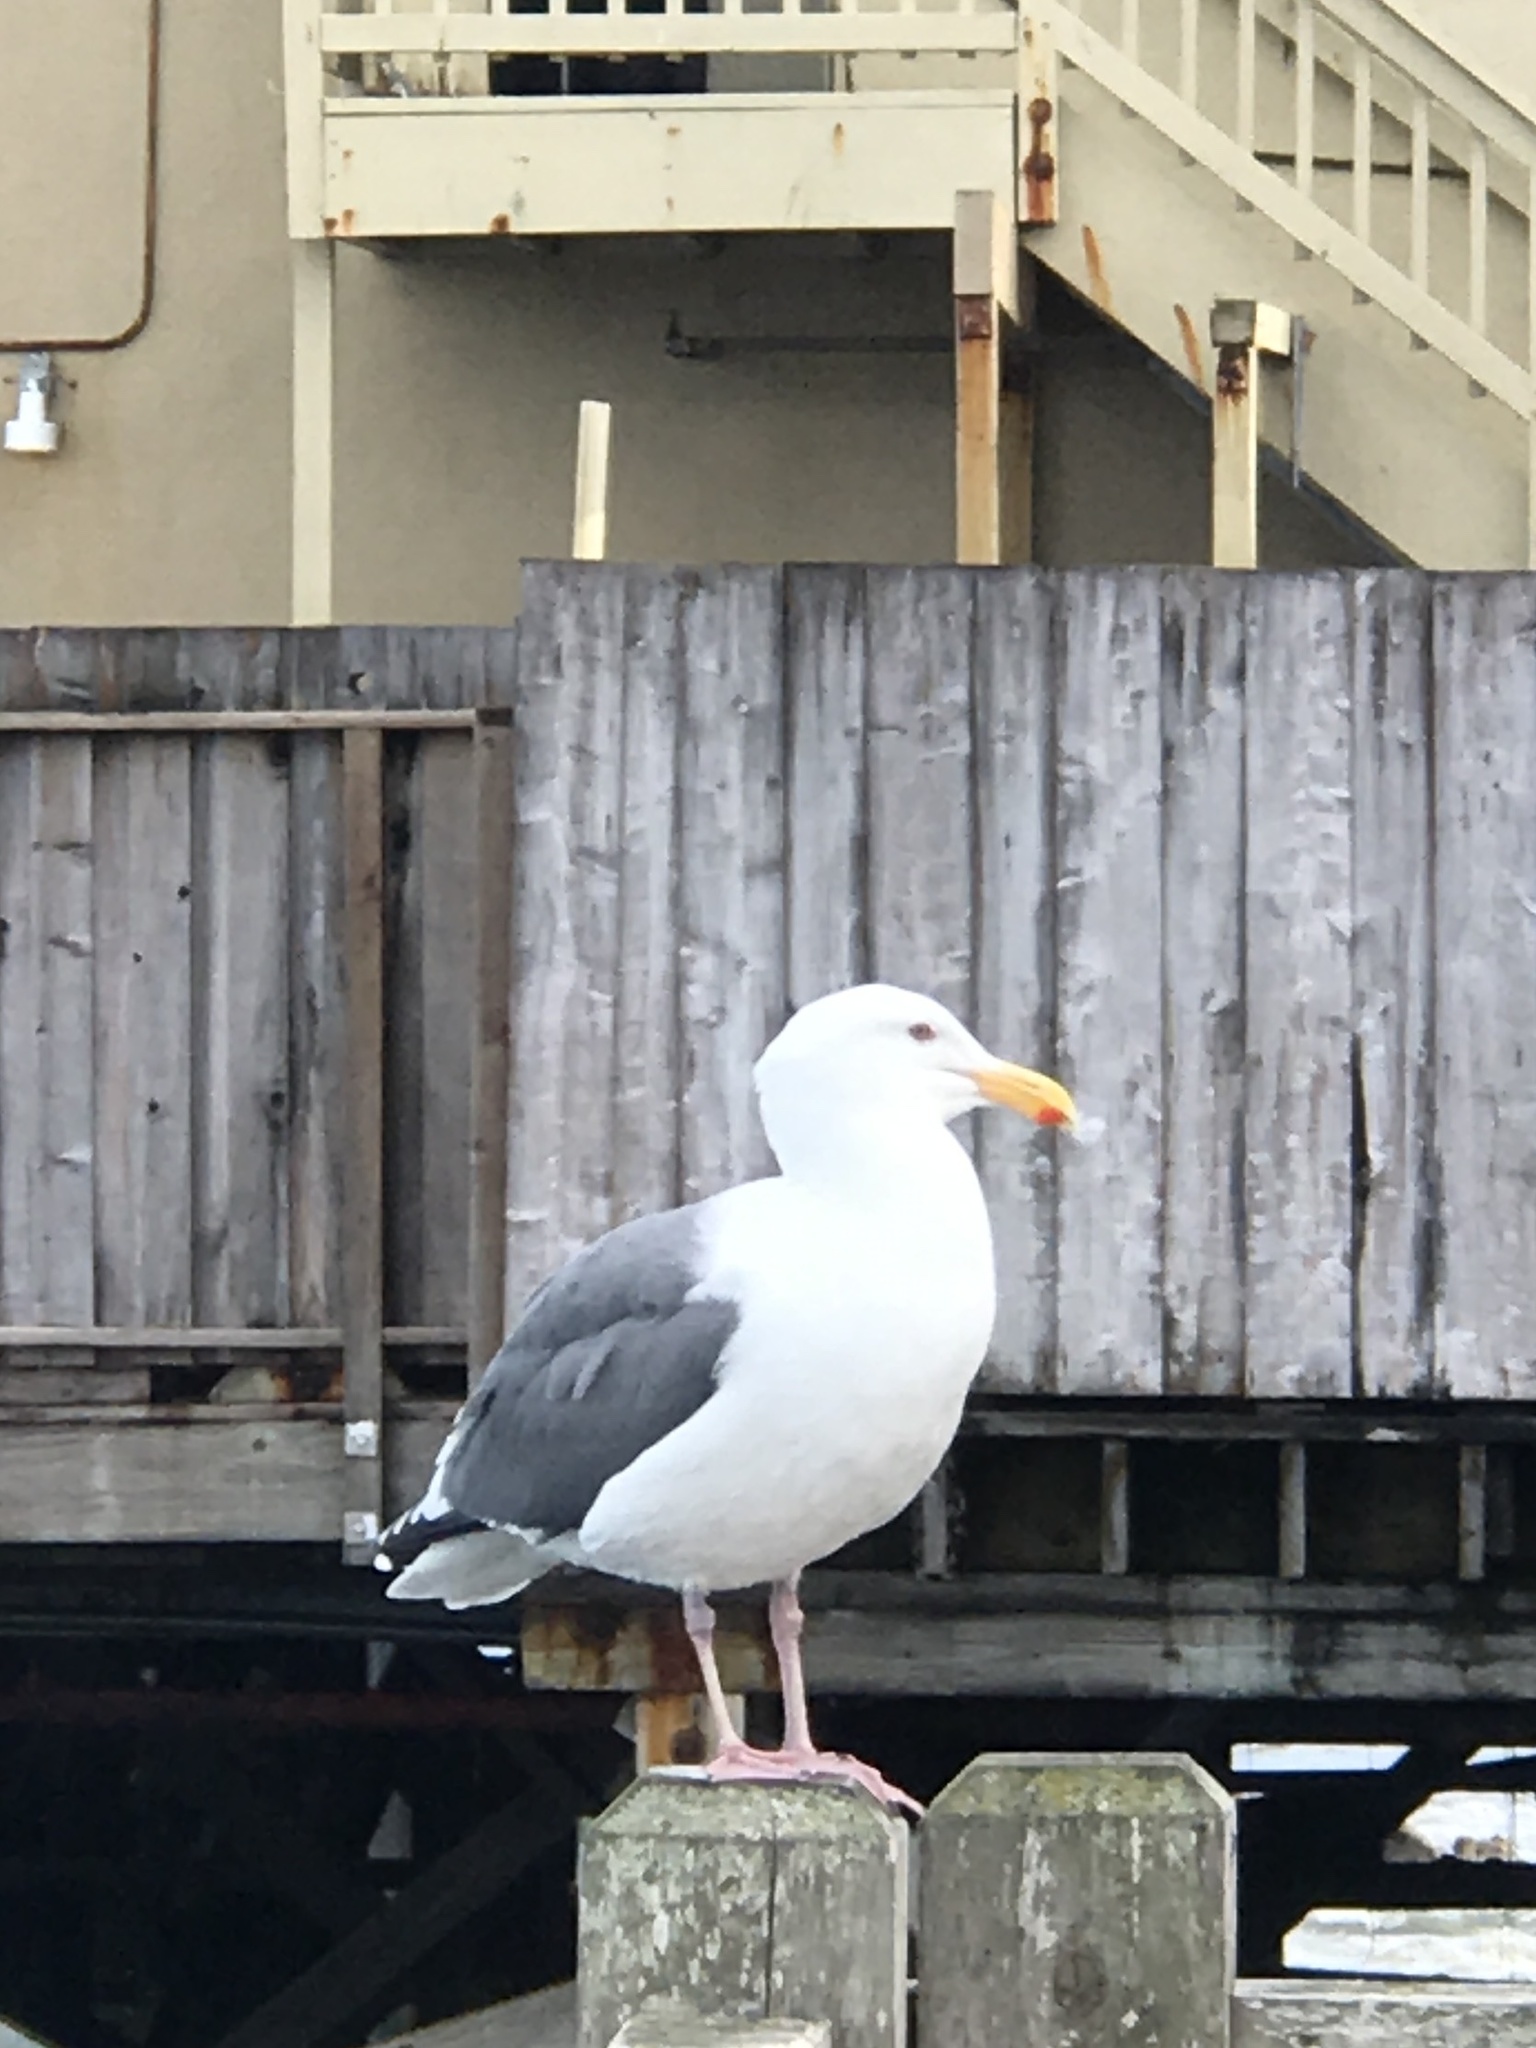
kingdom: Animalia
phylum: Chordata
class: Aves
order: Charadriiformes
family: Laridae
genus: Larus
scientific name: Larus occidentalis
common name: Western gull
